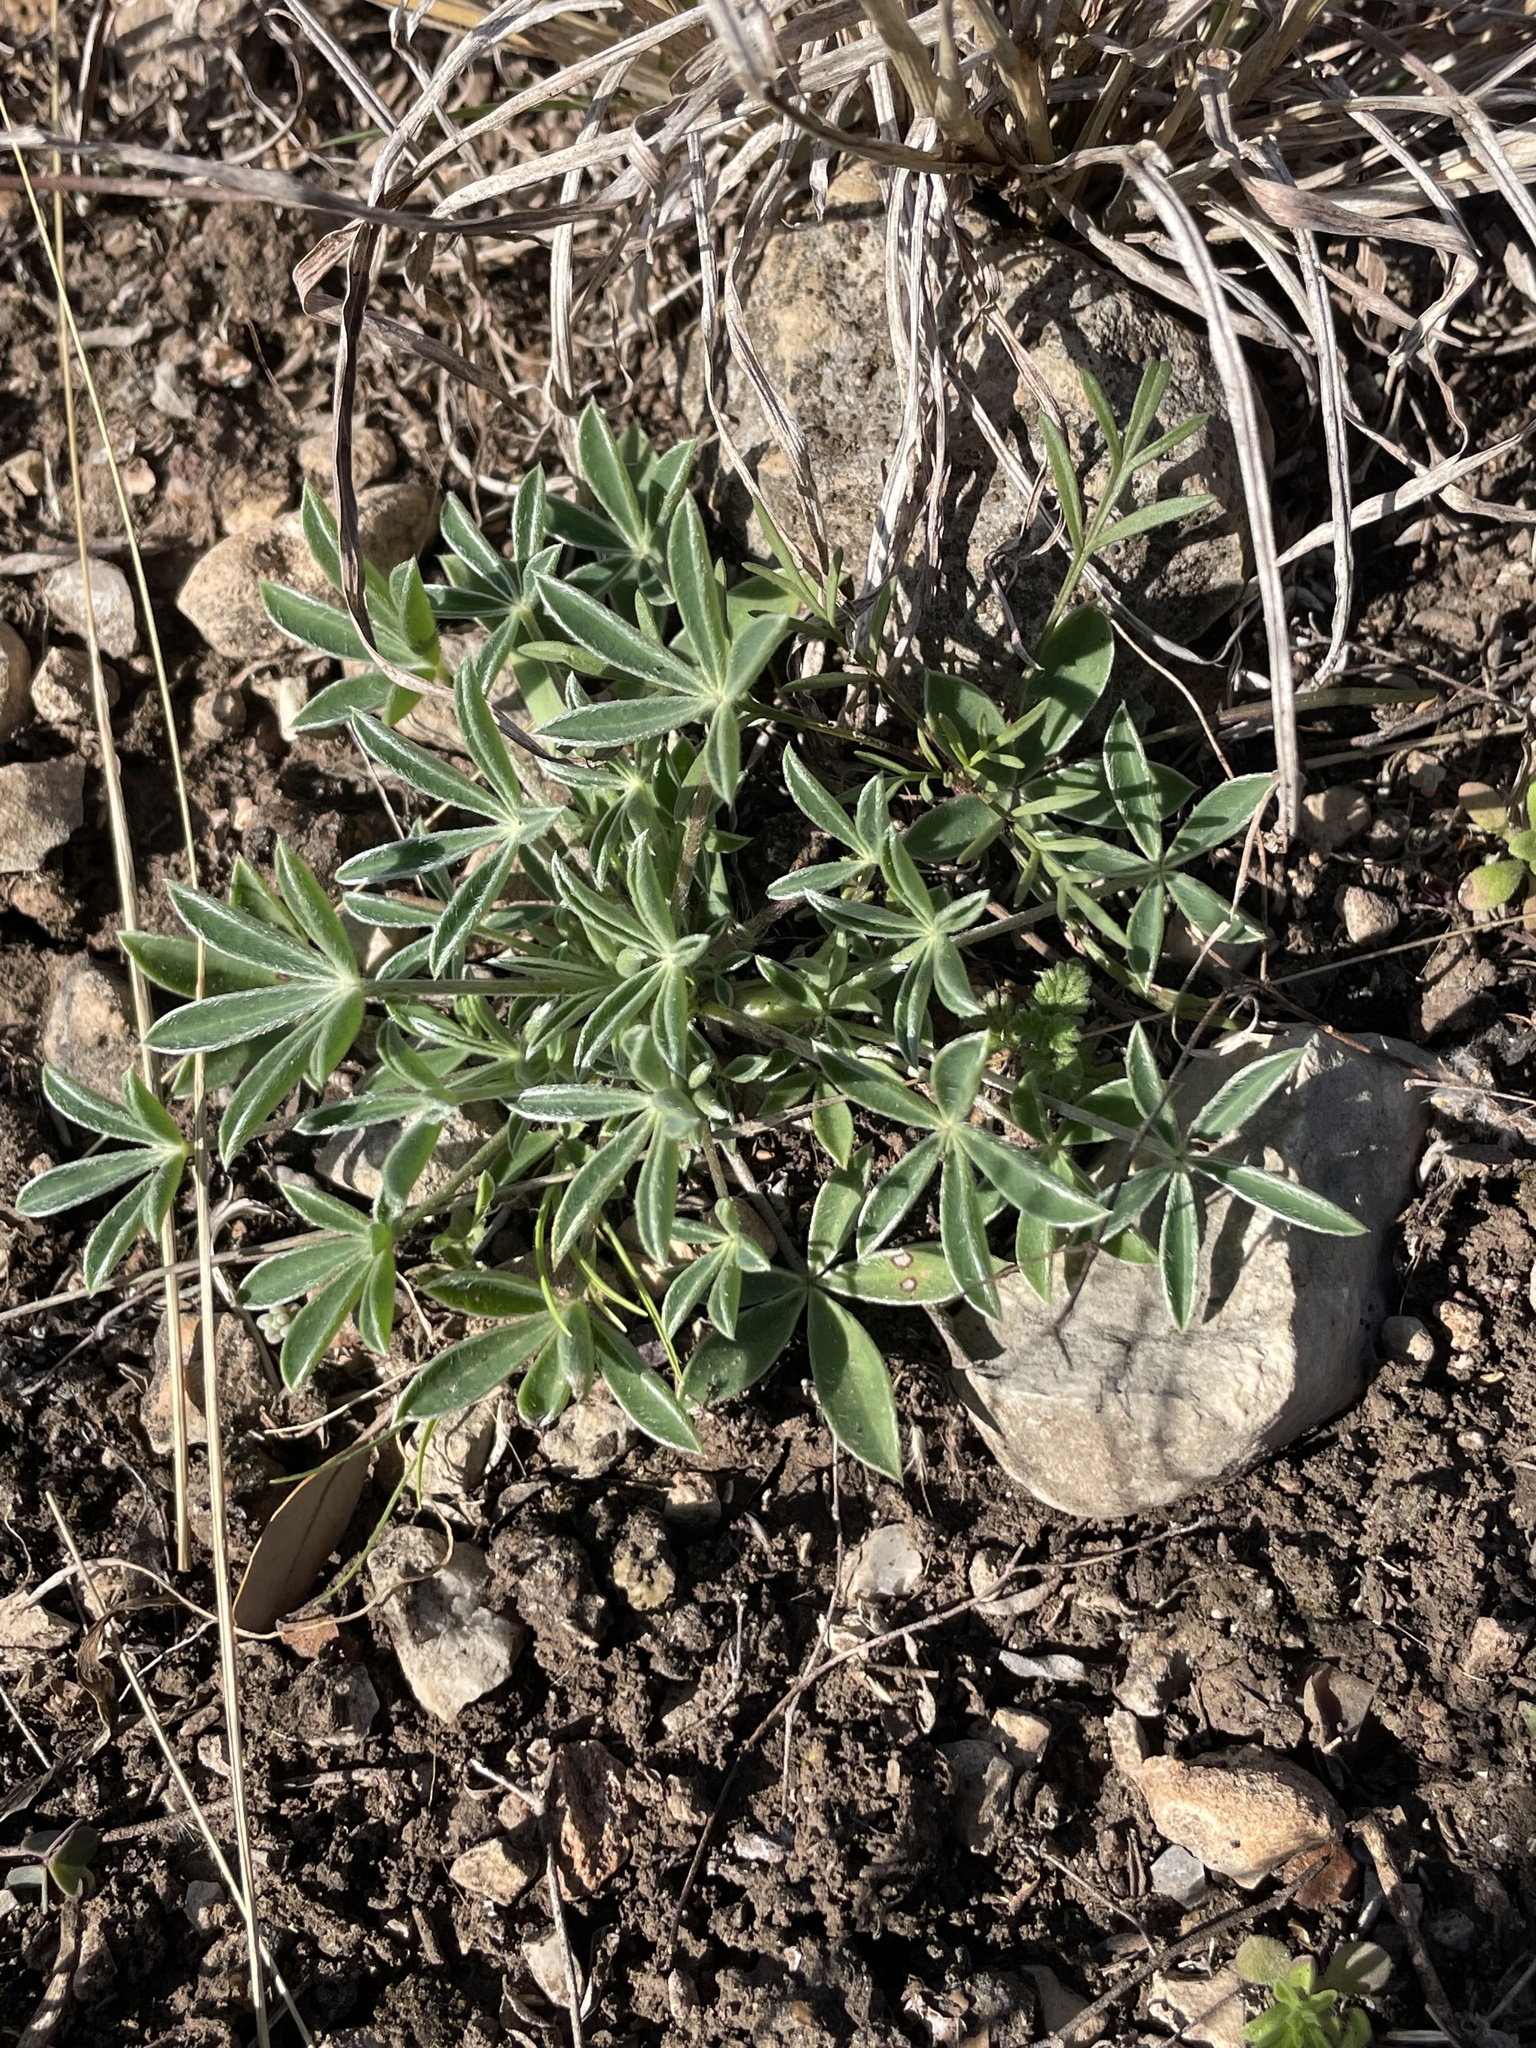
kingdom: Plantae
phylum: Tracheophyta
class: Magnoliopsida
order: Fabales
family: Fabaceae
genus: Lupinus
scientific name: Lupinus texensis
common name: Texas bluebonnet
